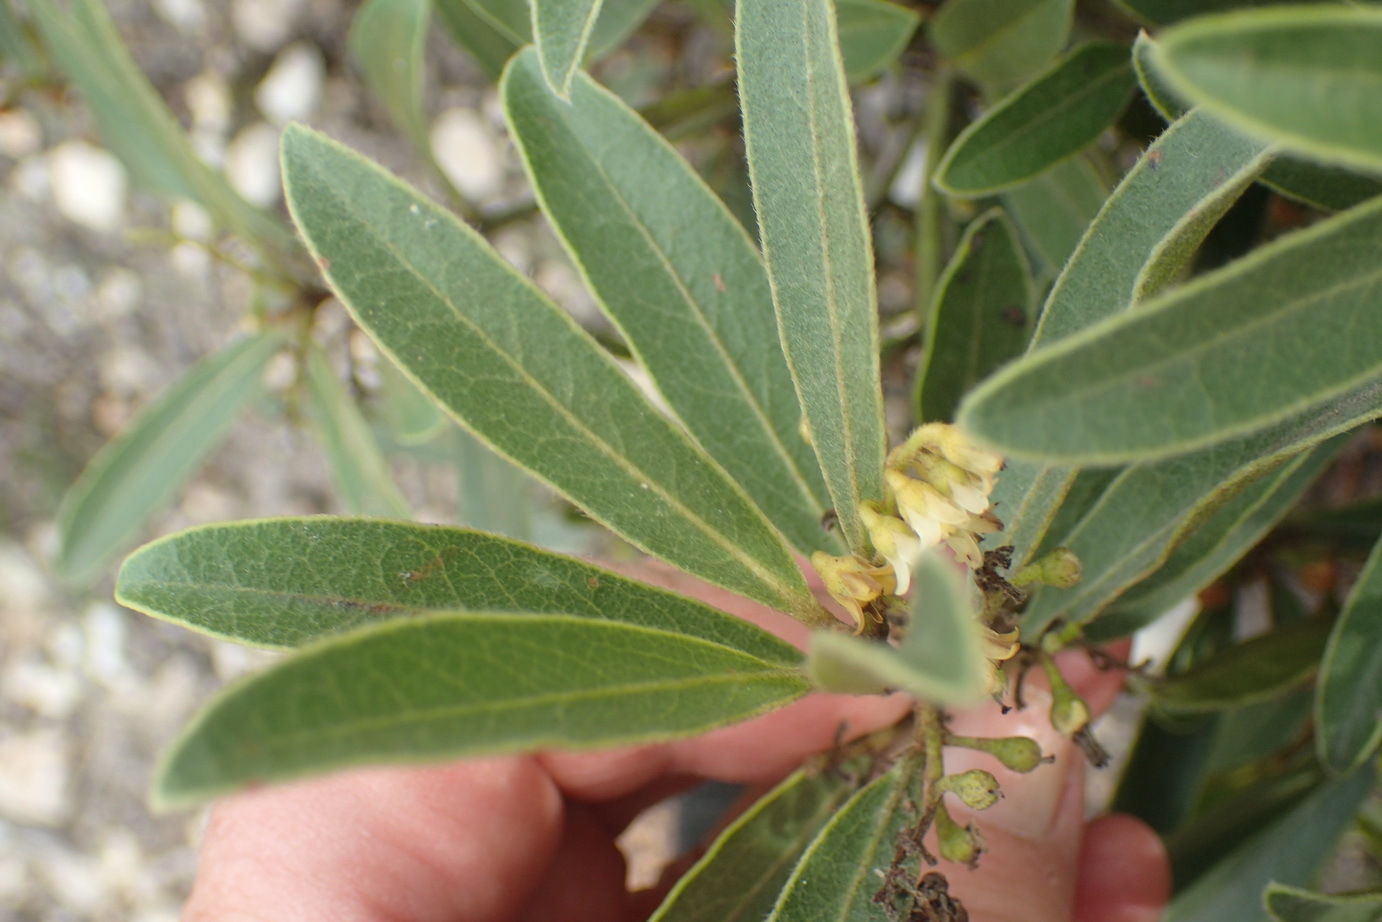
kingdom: Plantae
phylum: Tracheophyta
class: Magnoliopsida
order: Ericales
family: Ebenaceae
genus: Euclea
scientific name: Euclea polyandra
